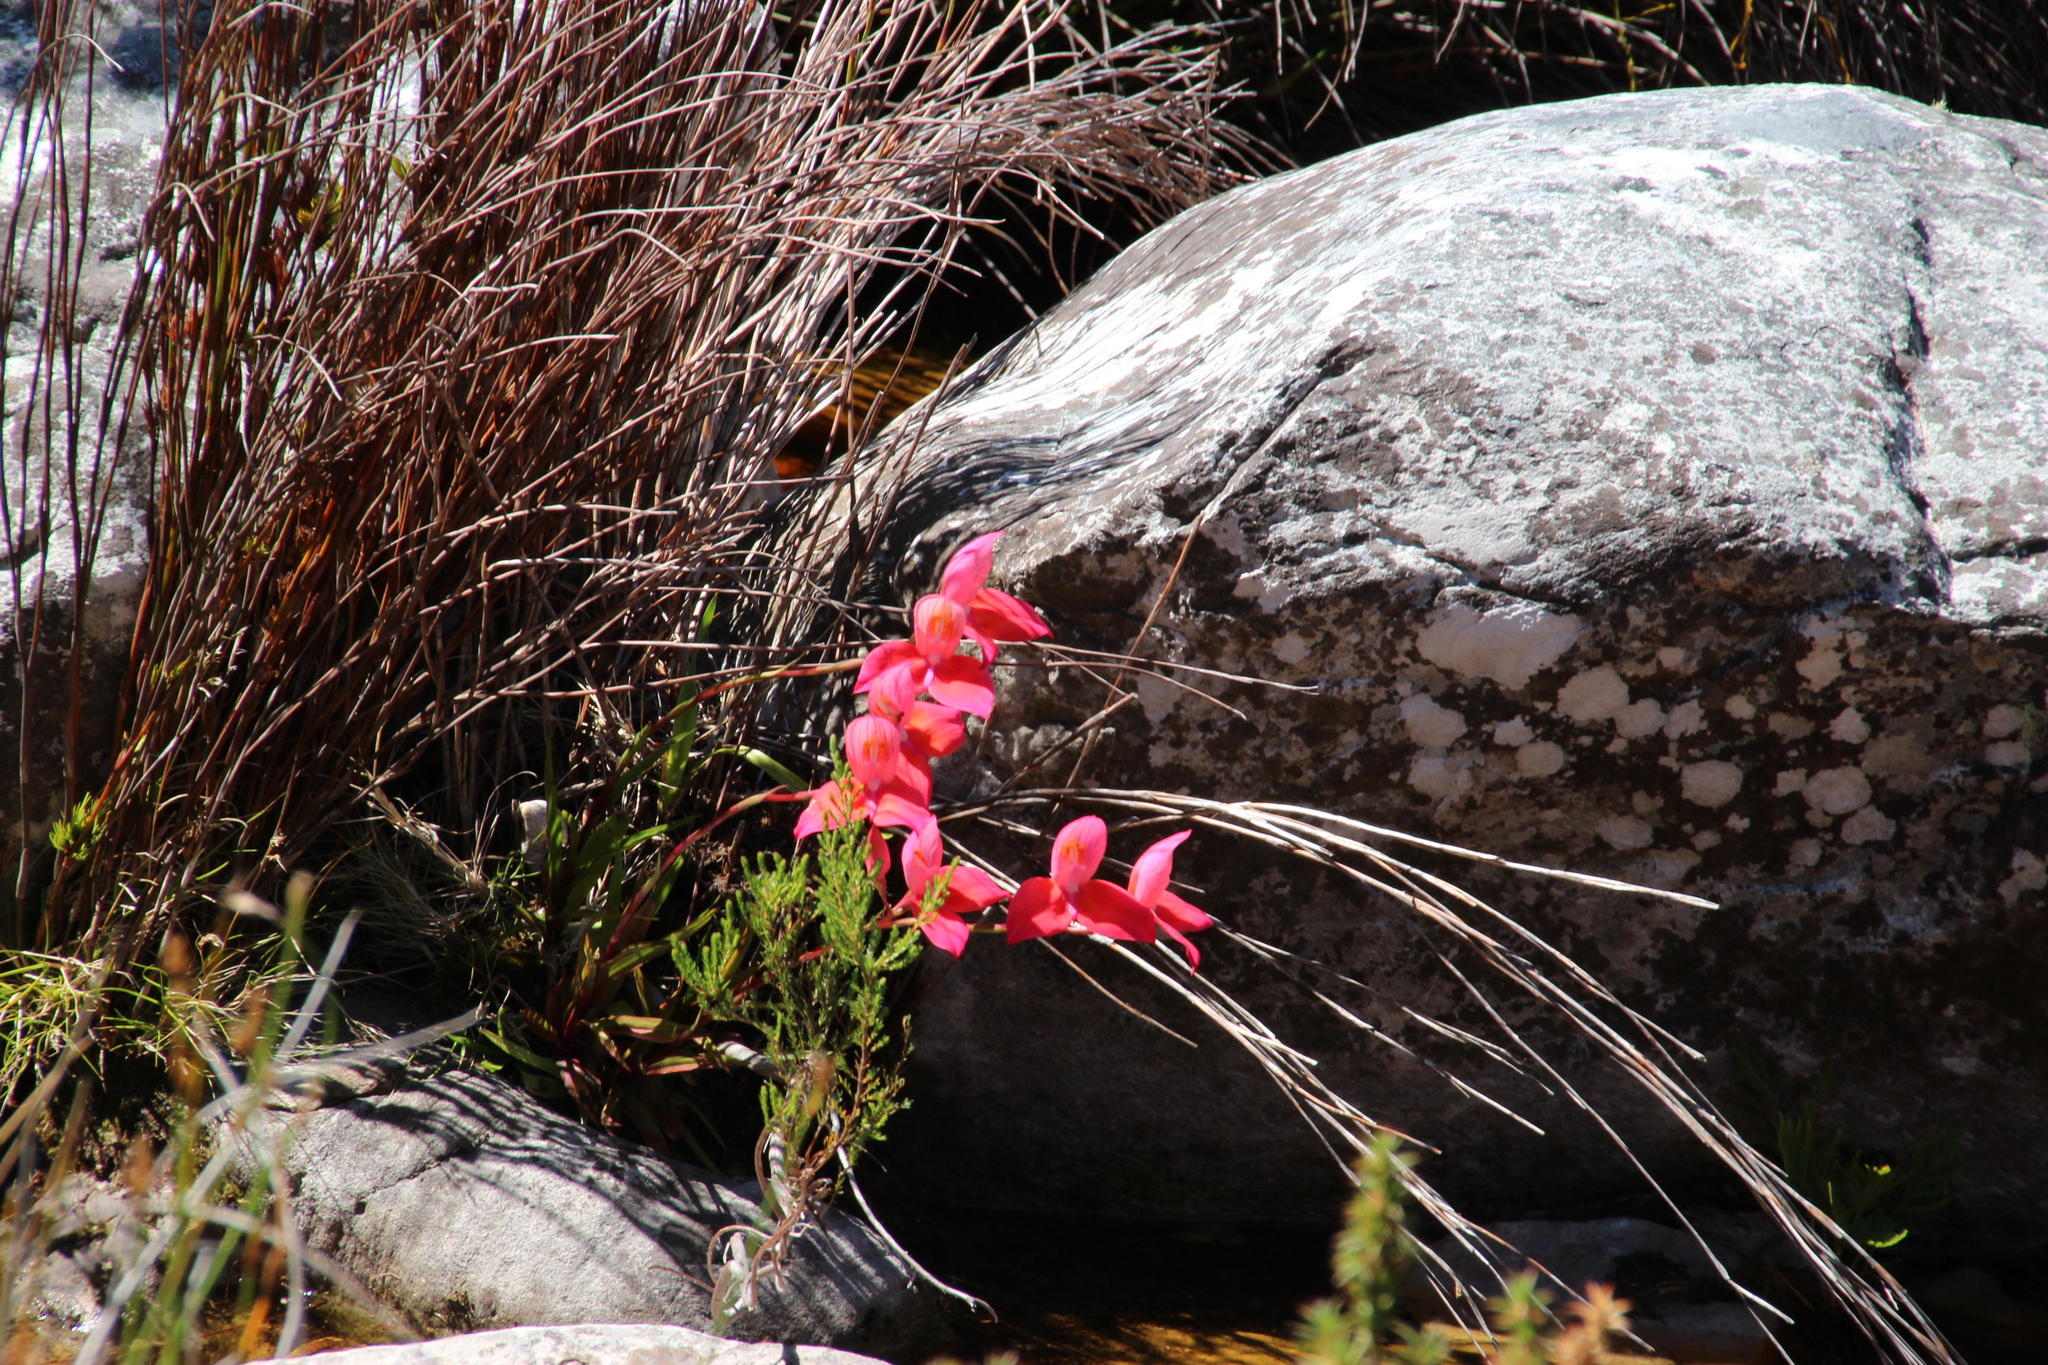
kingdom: Plantae
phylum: Tracheophyta
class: Liliopsida
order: Asparagales
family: Orchidaceae
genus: Disa
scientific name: Disa uniflora
